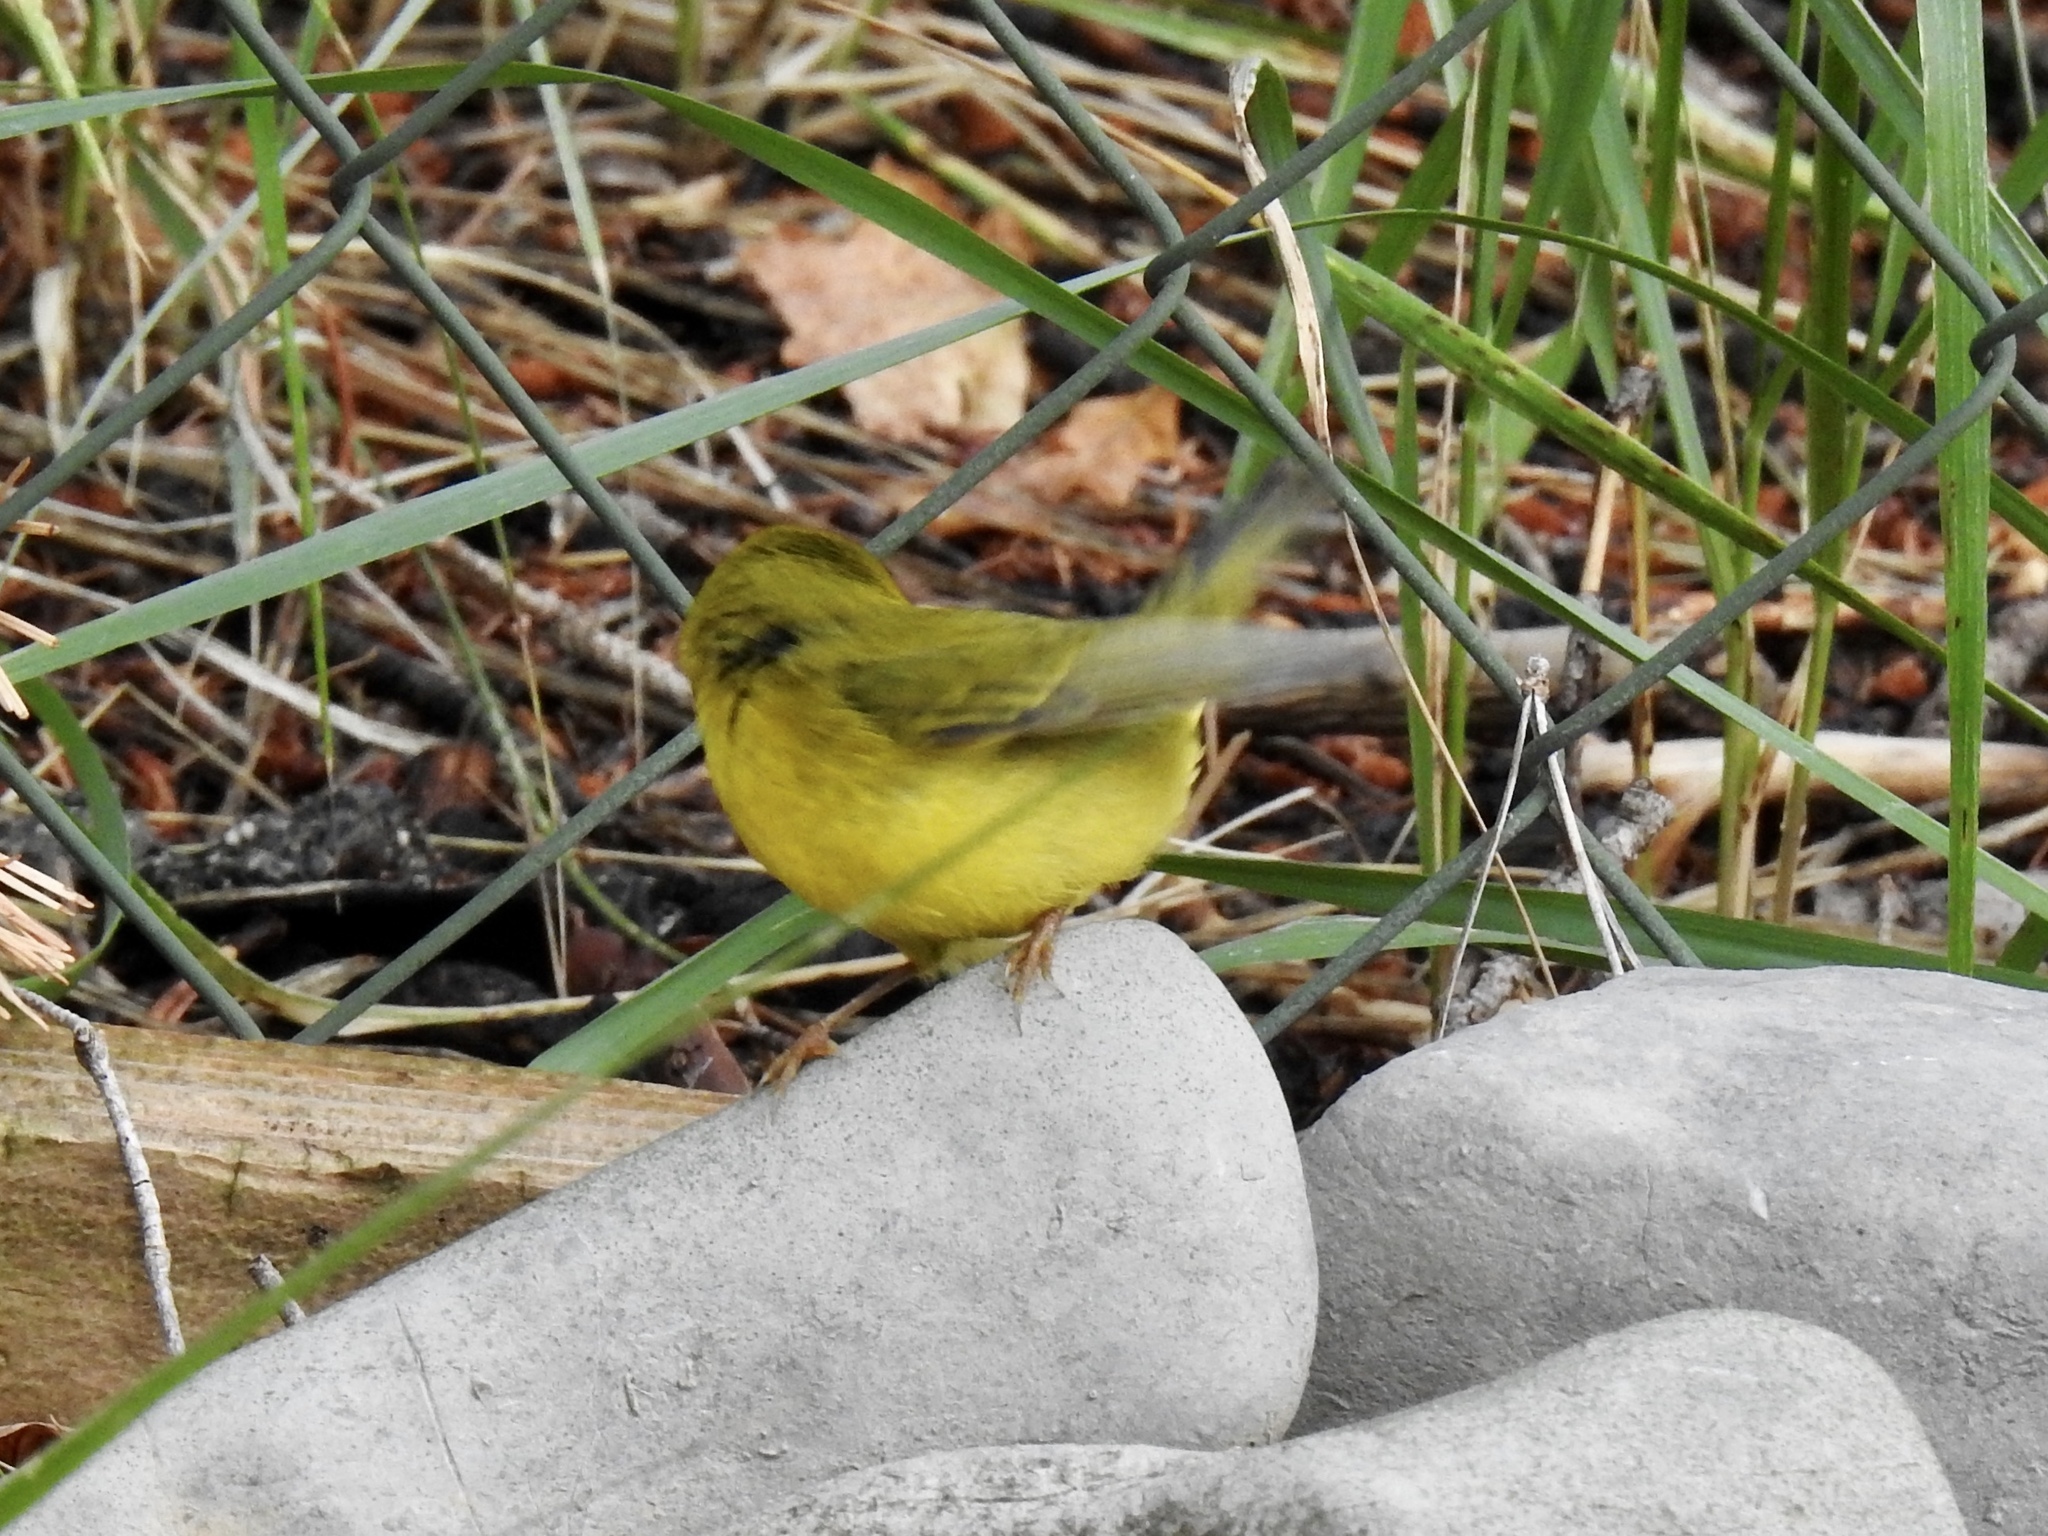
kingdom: Animalia
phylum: Chordata
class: Aves
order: Passeriformes
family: Parulidae
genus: Cardellina
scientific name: Cardellina pusilla
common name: Wilson's warbler
